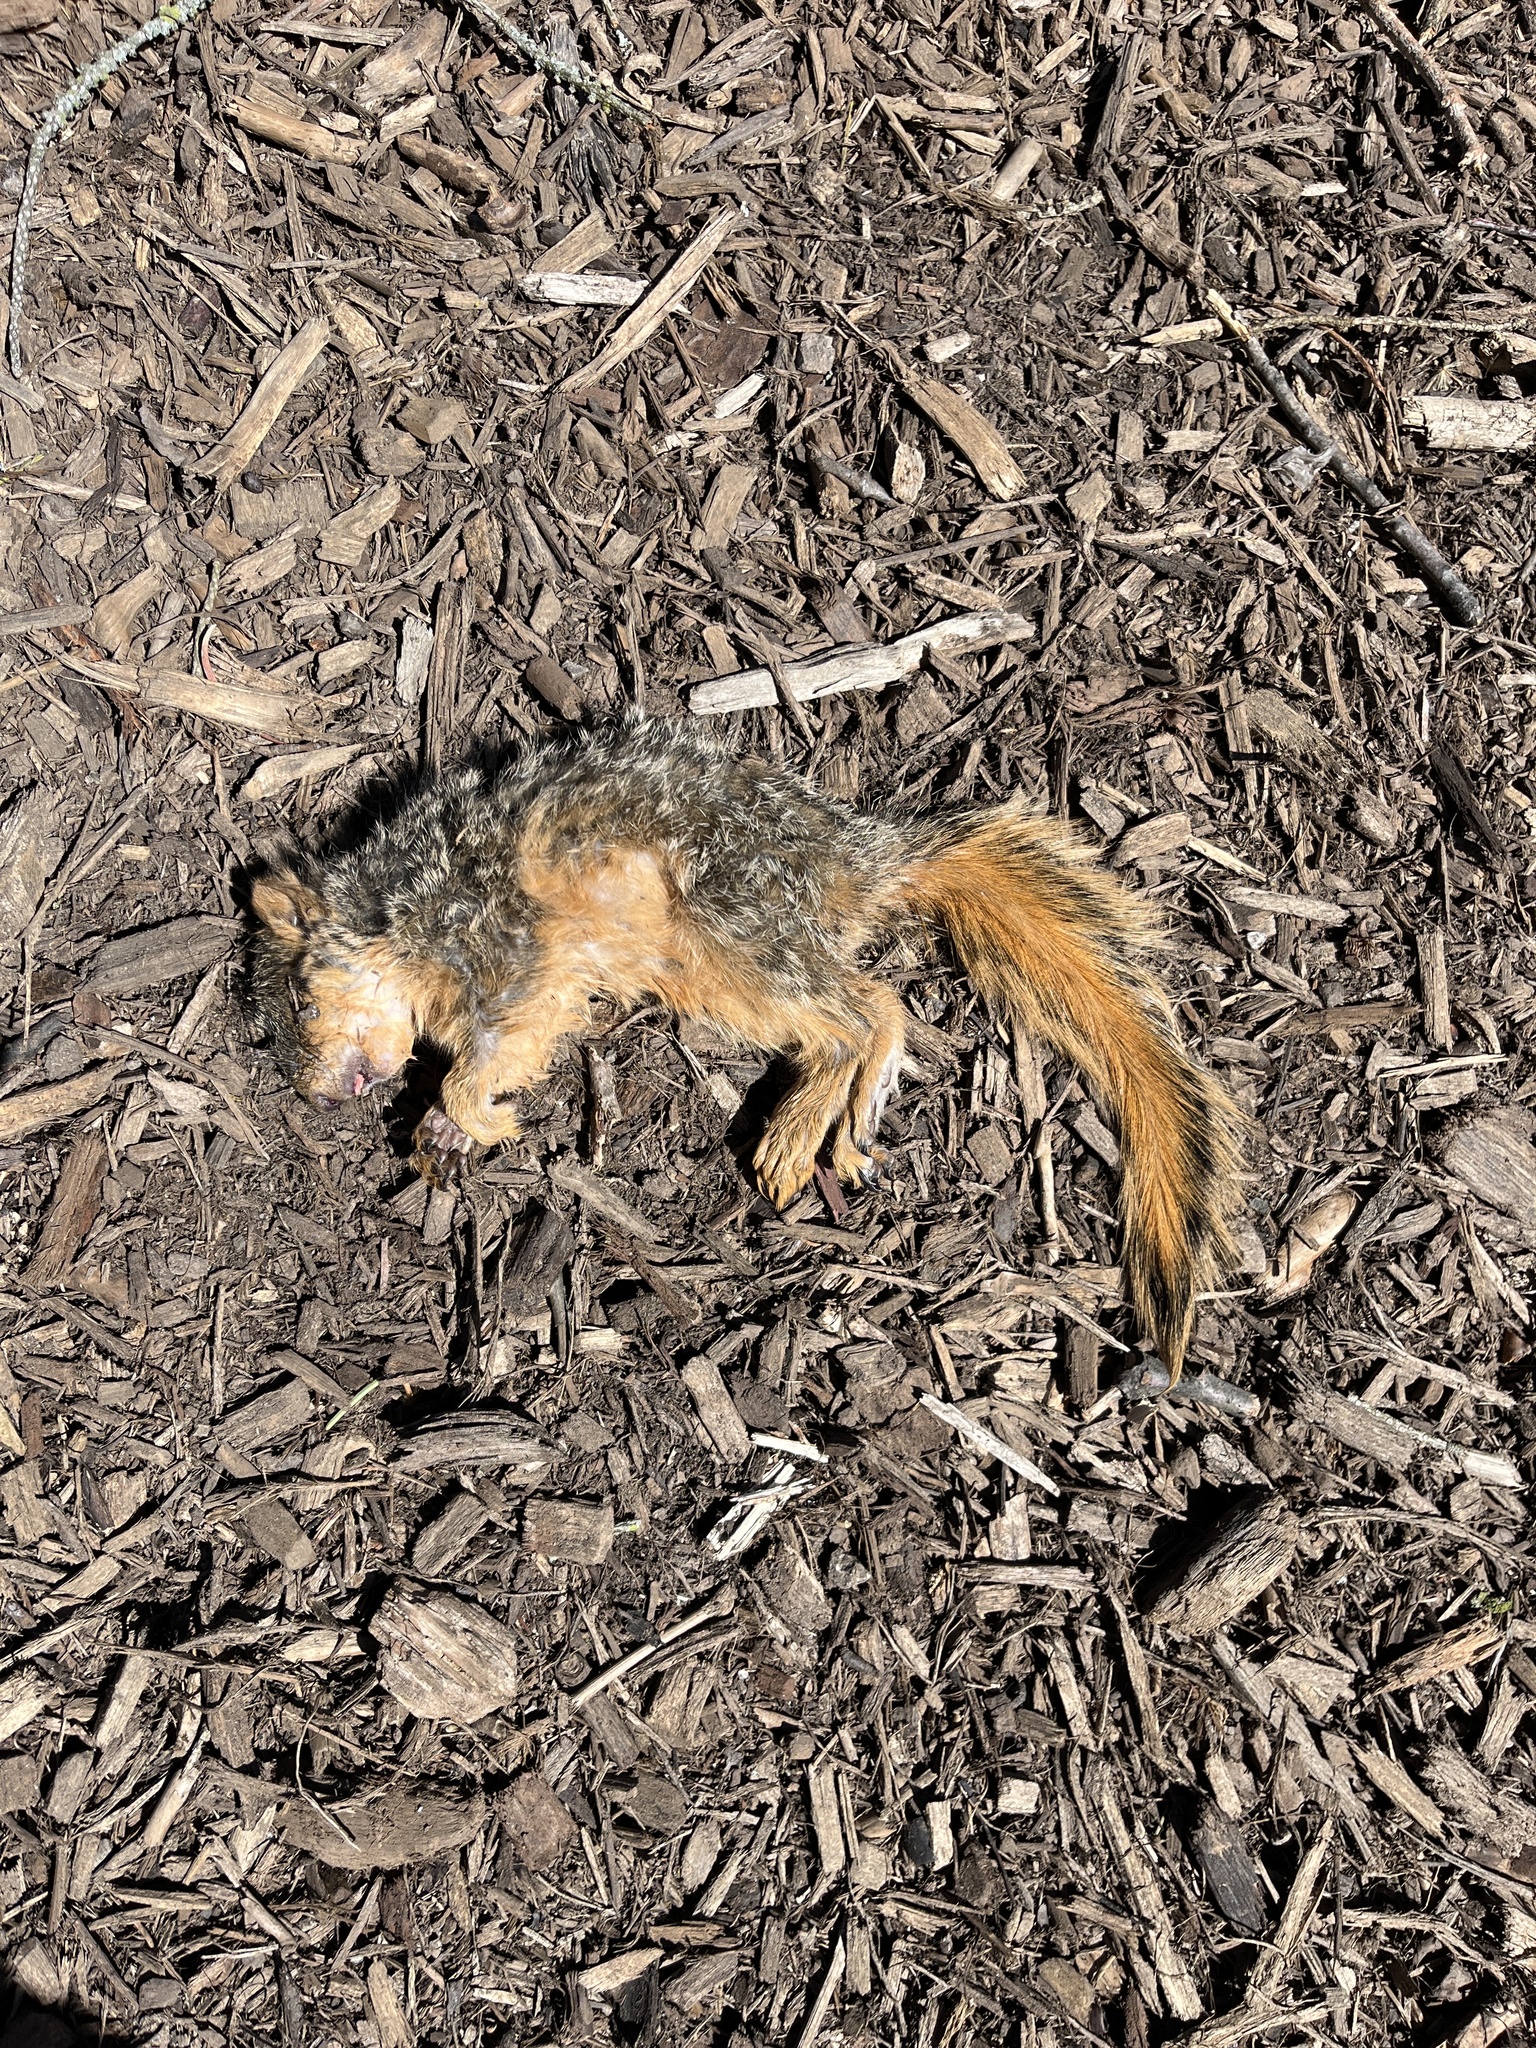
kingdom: Animalia
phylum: Chordata
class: Mammalia
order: Rodentia
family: Sciuridae
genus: Sciurus
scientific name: Sciurus niger
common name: Fox squirrel
